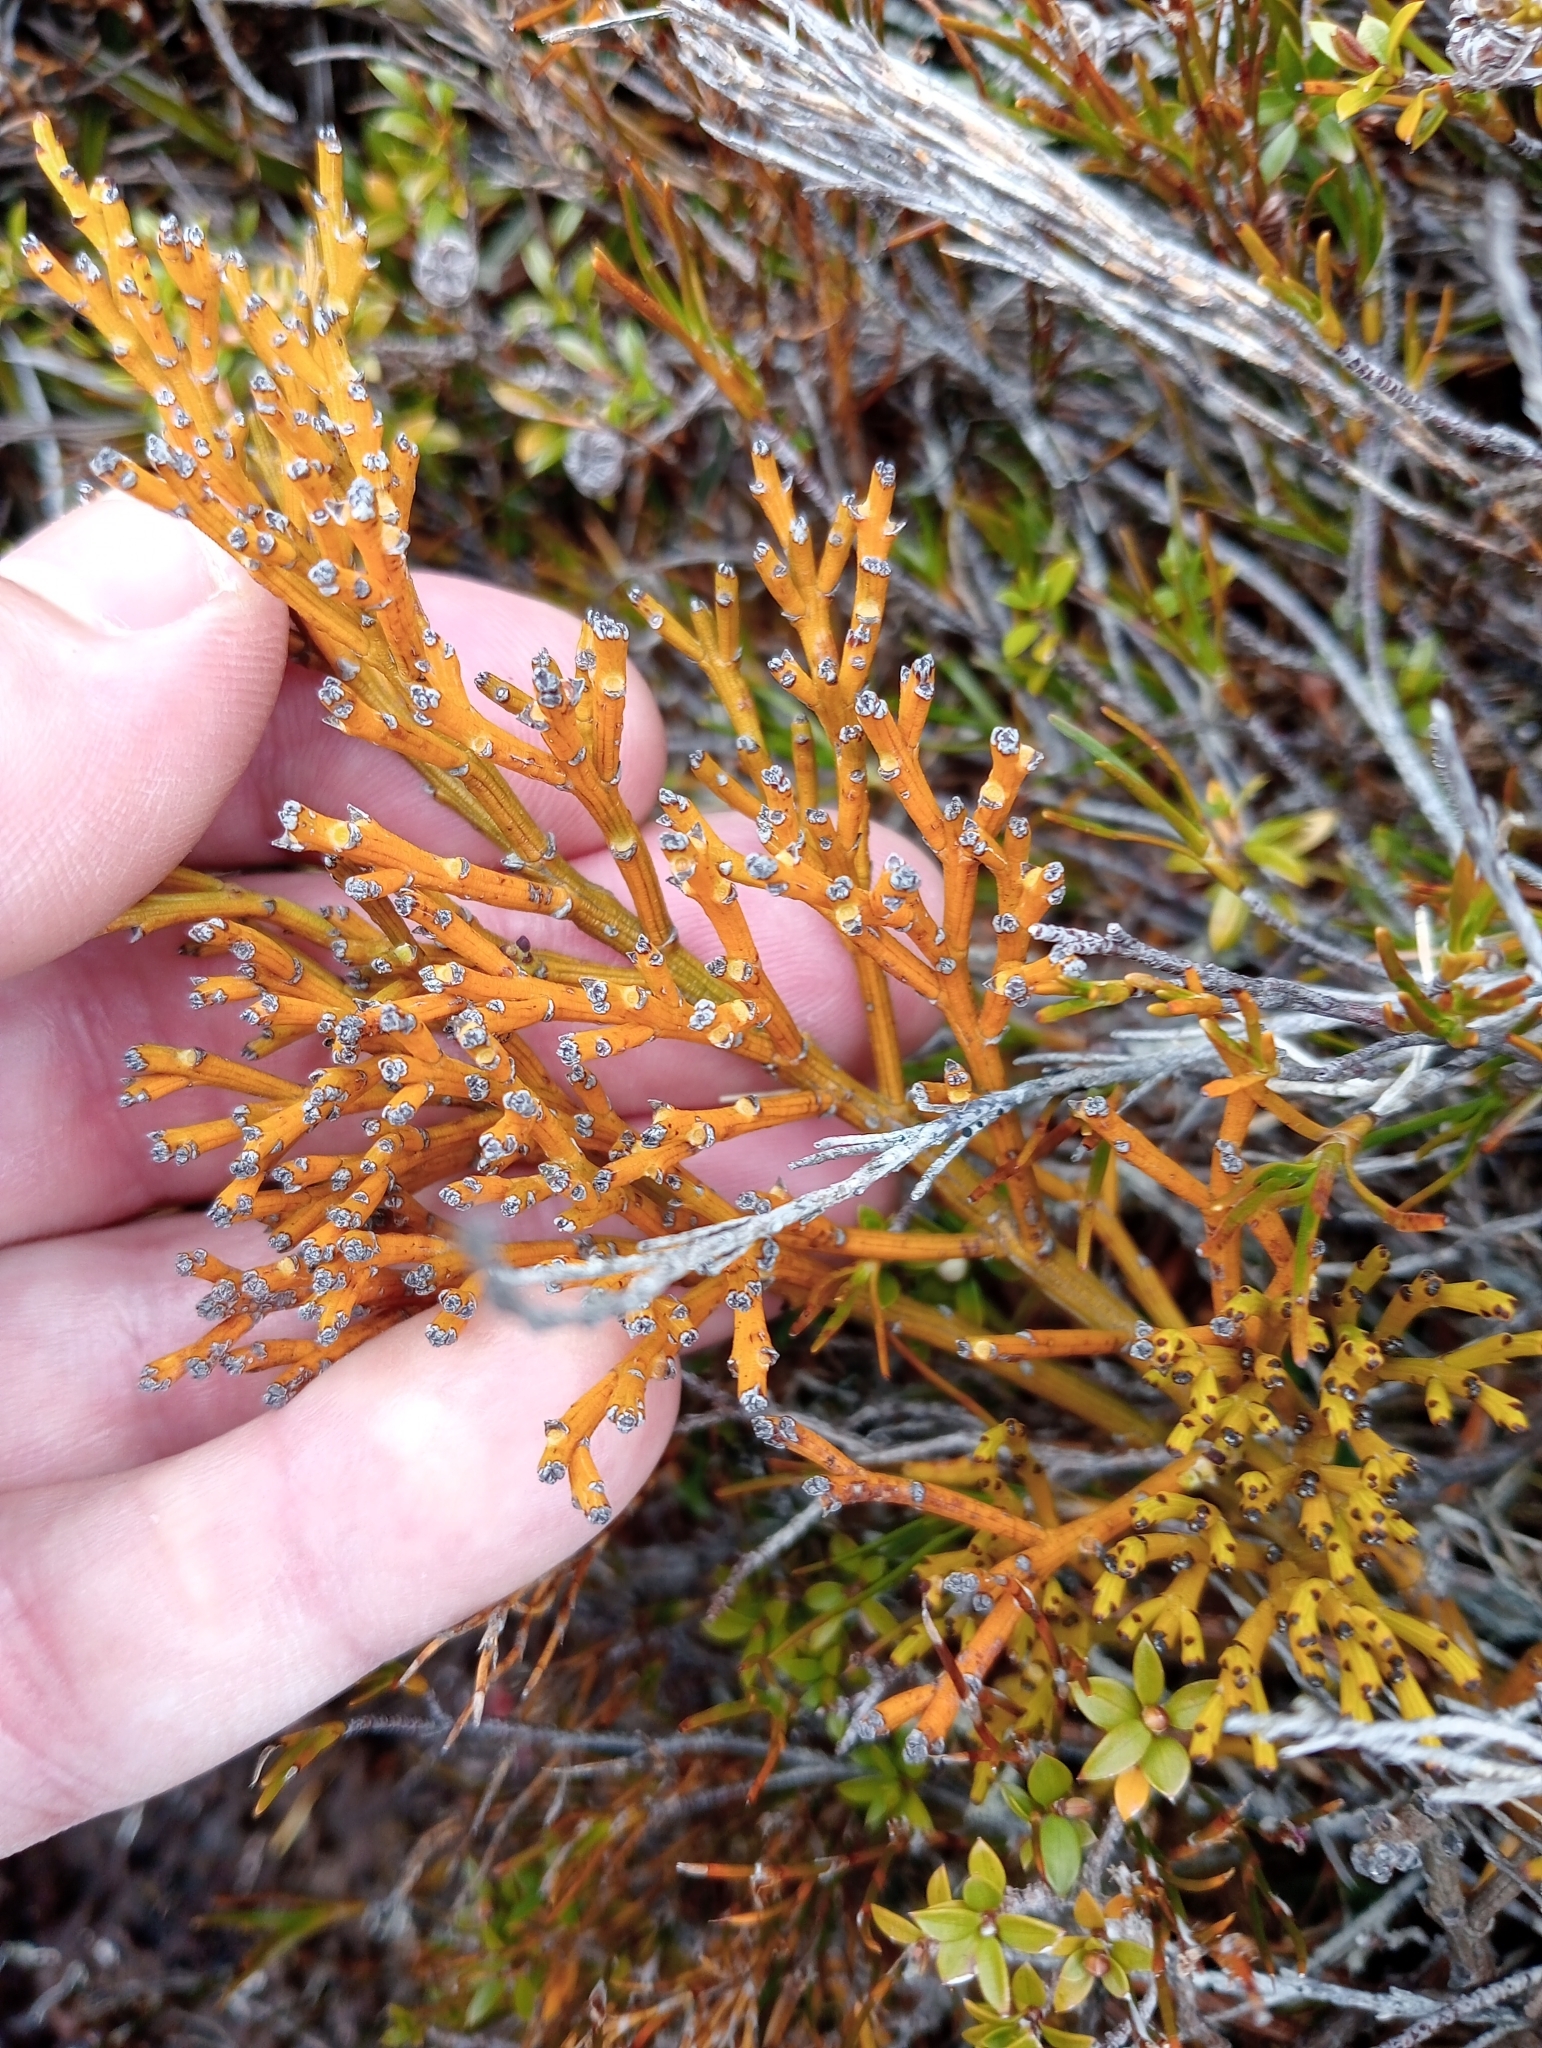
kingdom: Plantae
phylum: Tracheophyta
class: Magnoliopsida
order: Santalales
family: Santalaceae
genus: Exocarpos
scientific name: Exocarpos bidwillii
